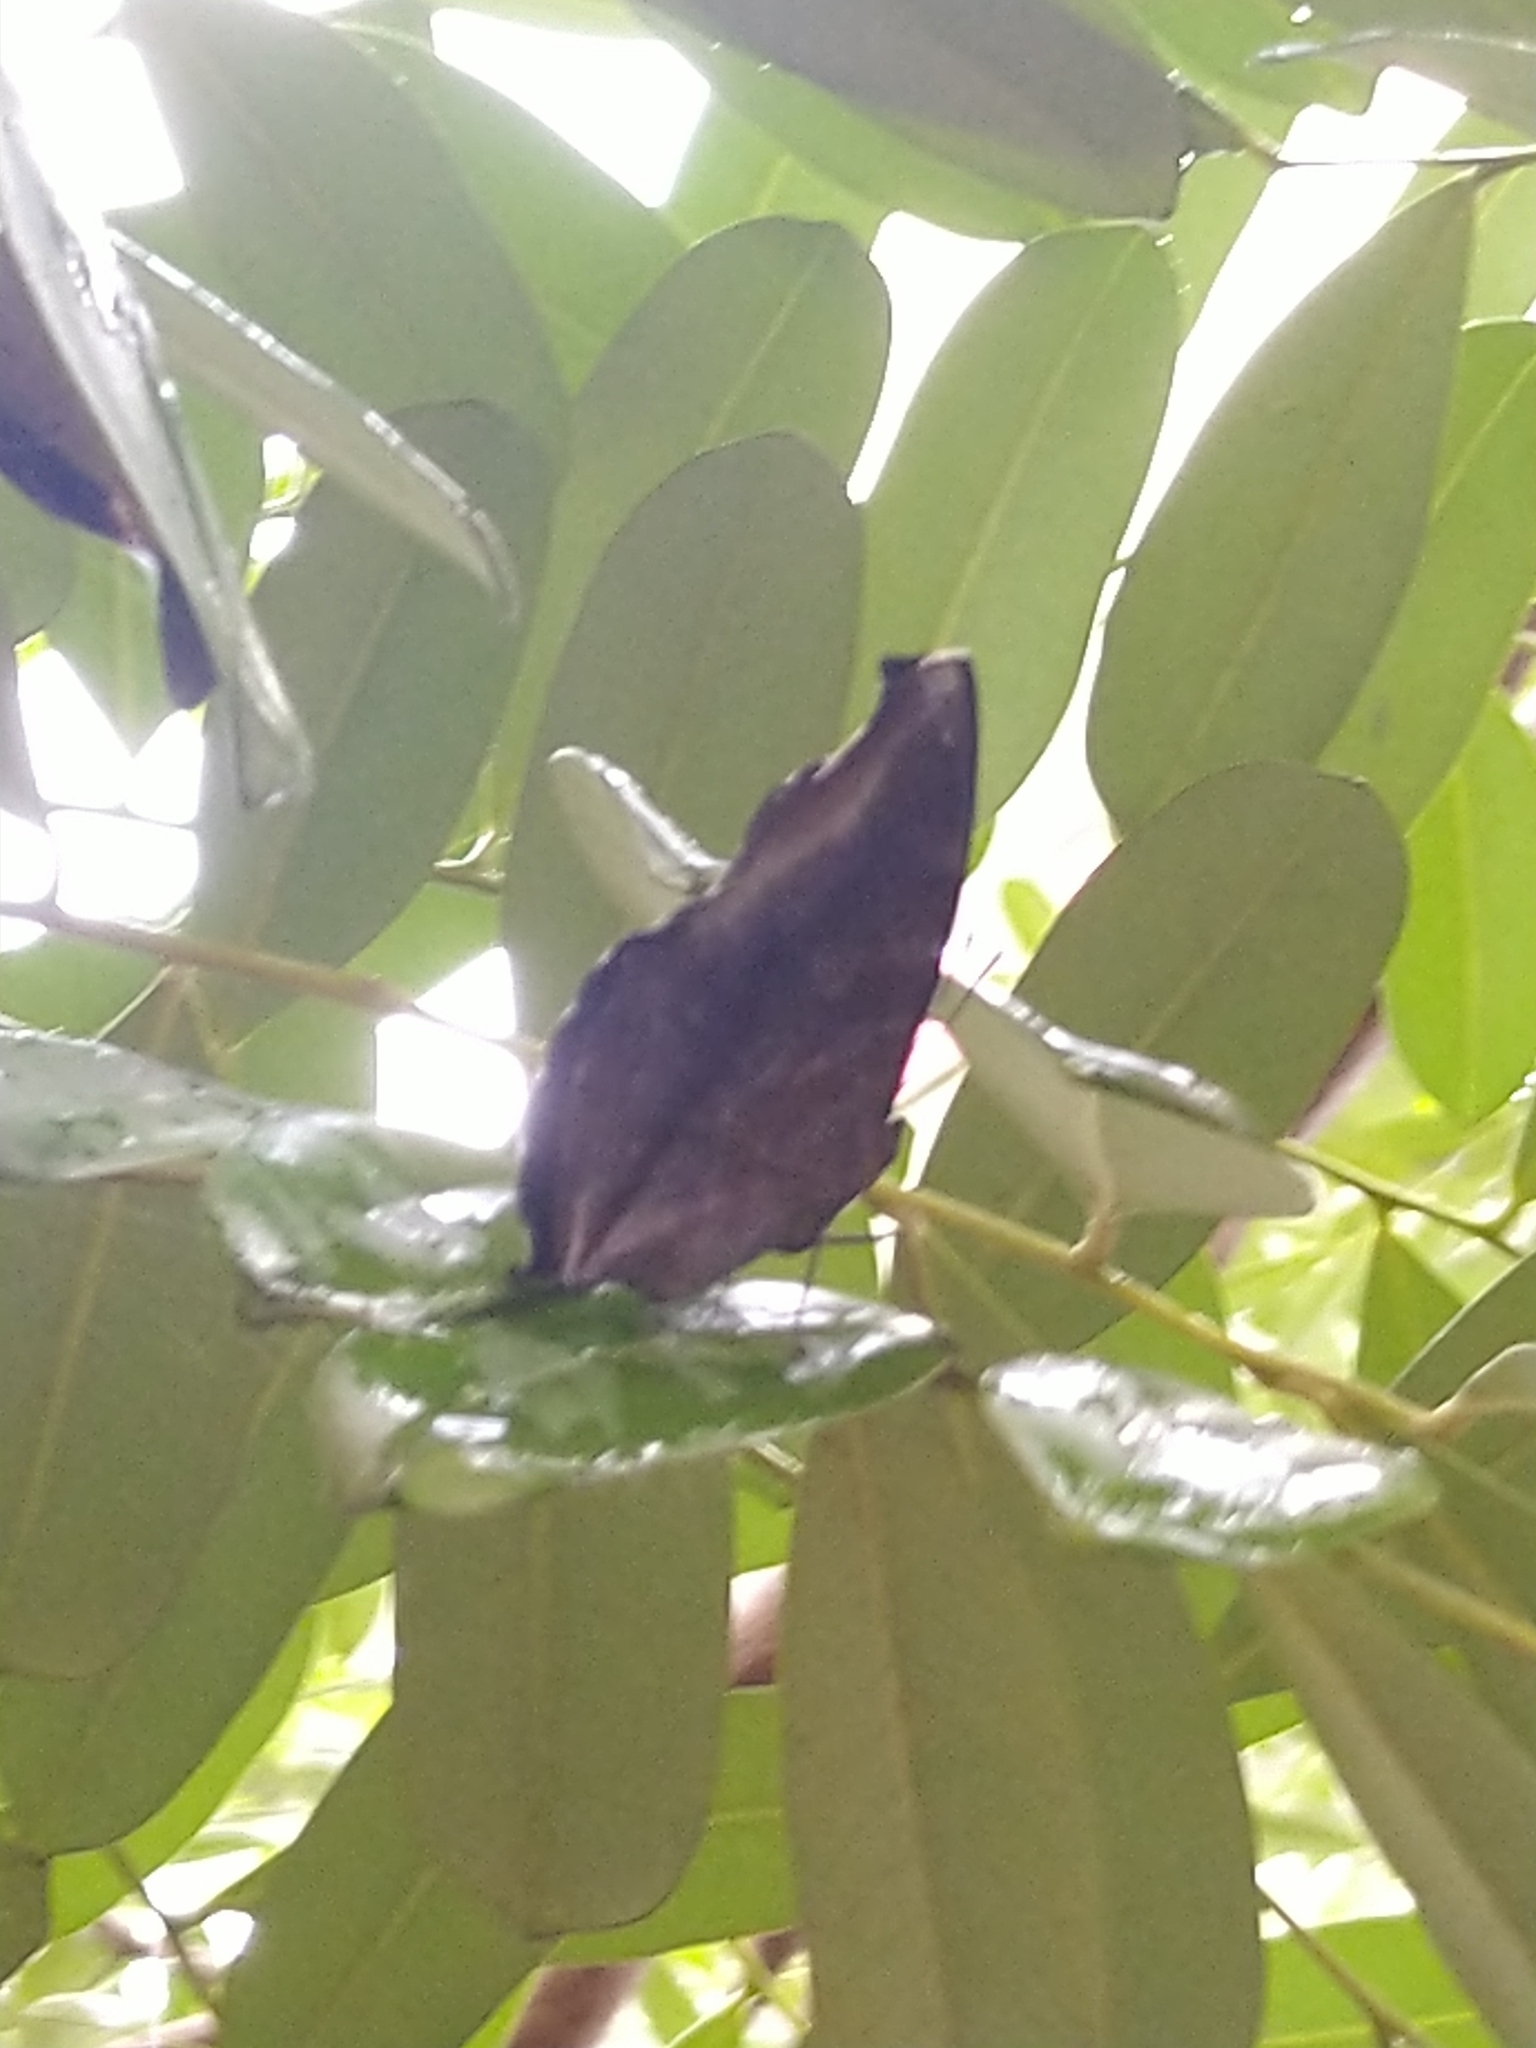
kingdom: Animalia
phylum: Arthropoda
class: Insecta
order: Lepidoptera
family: Nymphalidae
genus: Junonia
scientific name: Junonia iphita
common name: Chocolate pansy
